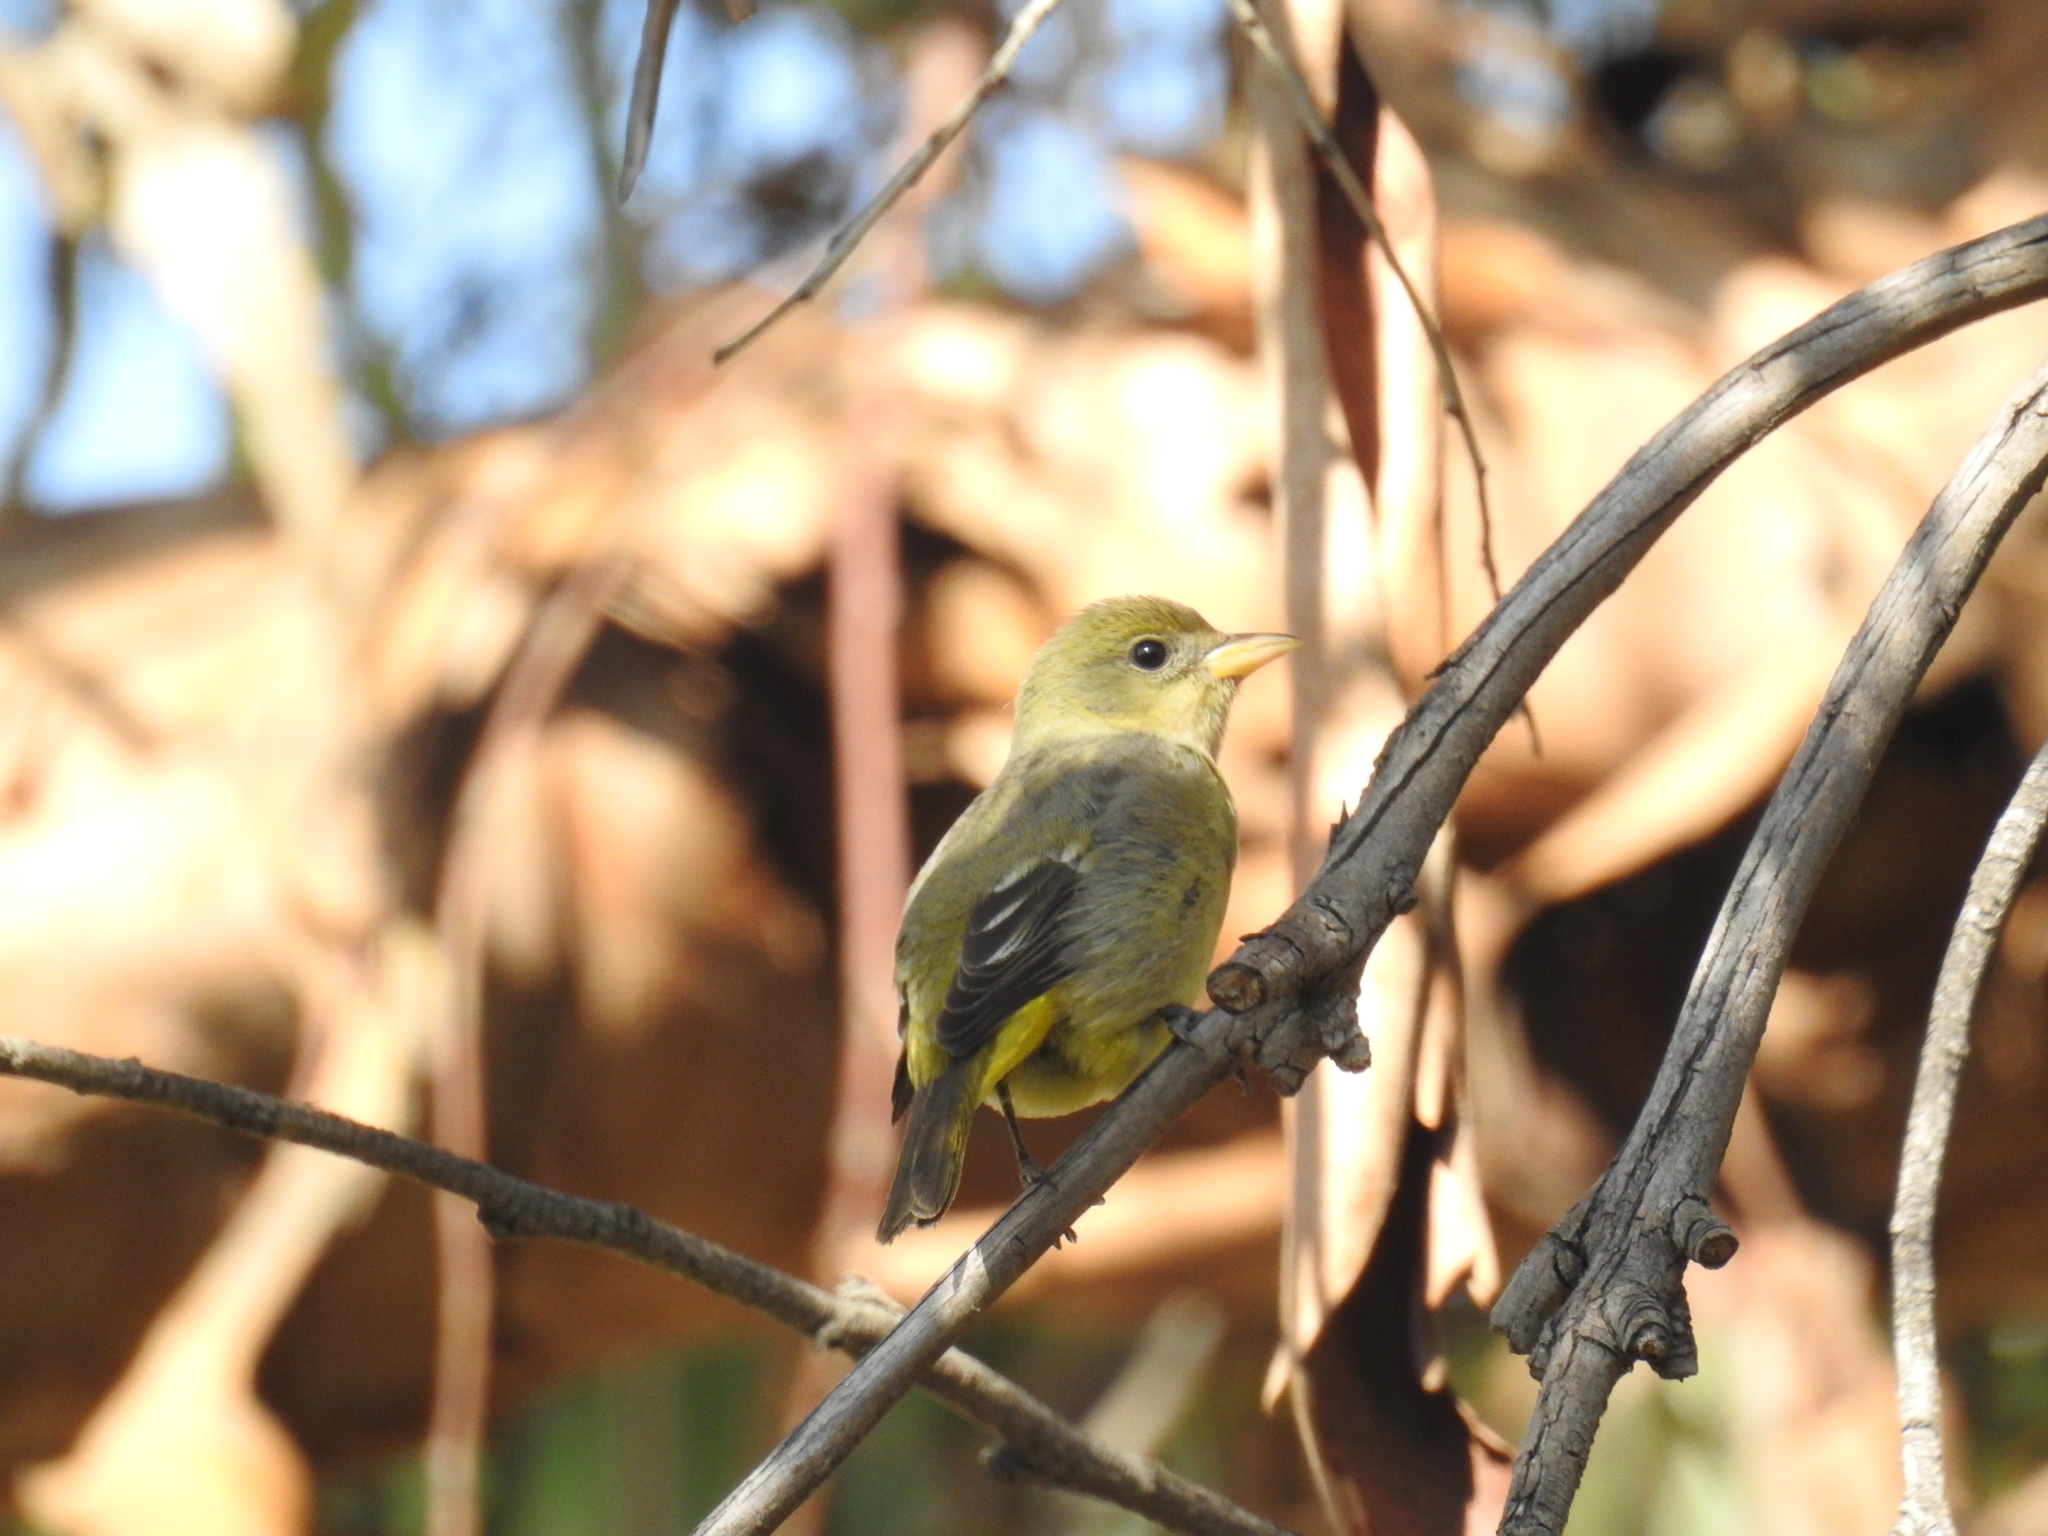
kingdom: Animalia
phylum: Chordata
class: Aves
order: Passeriformes
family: Cardinalidae
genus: Piranga
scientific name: Piranga ludoviciana
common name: Western tanager
